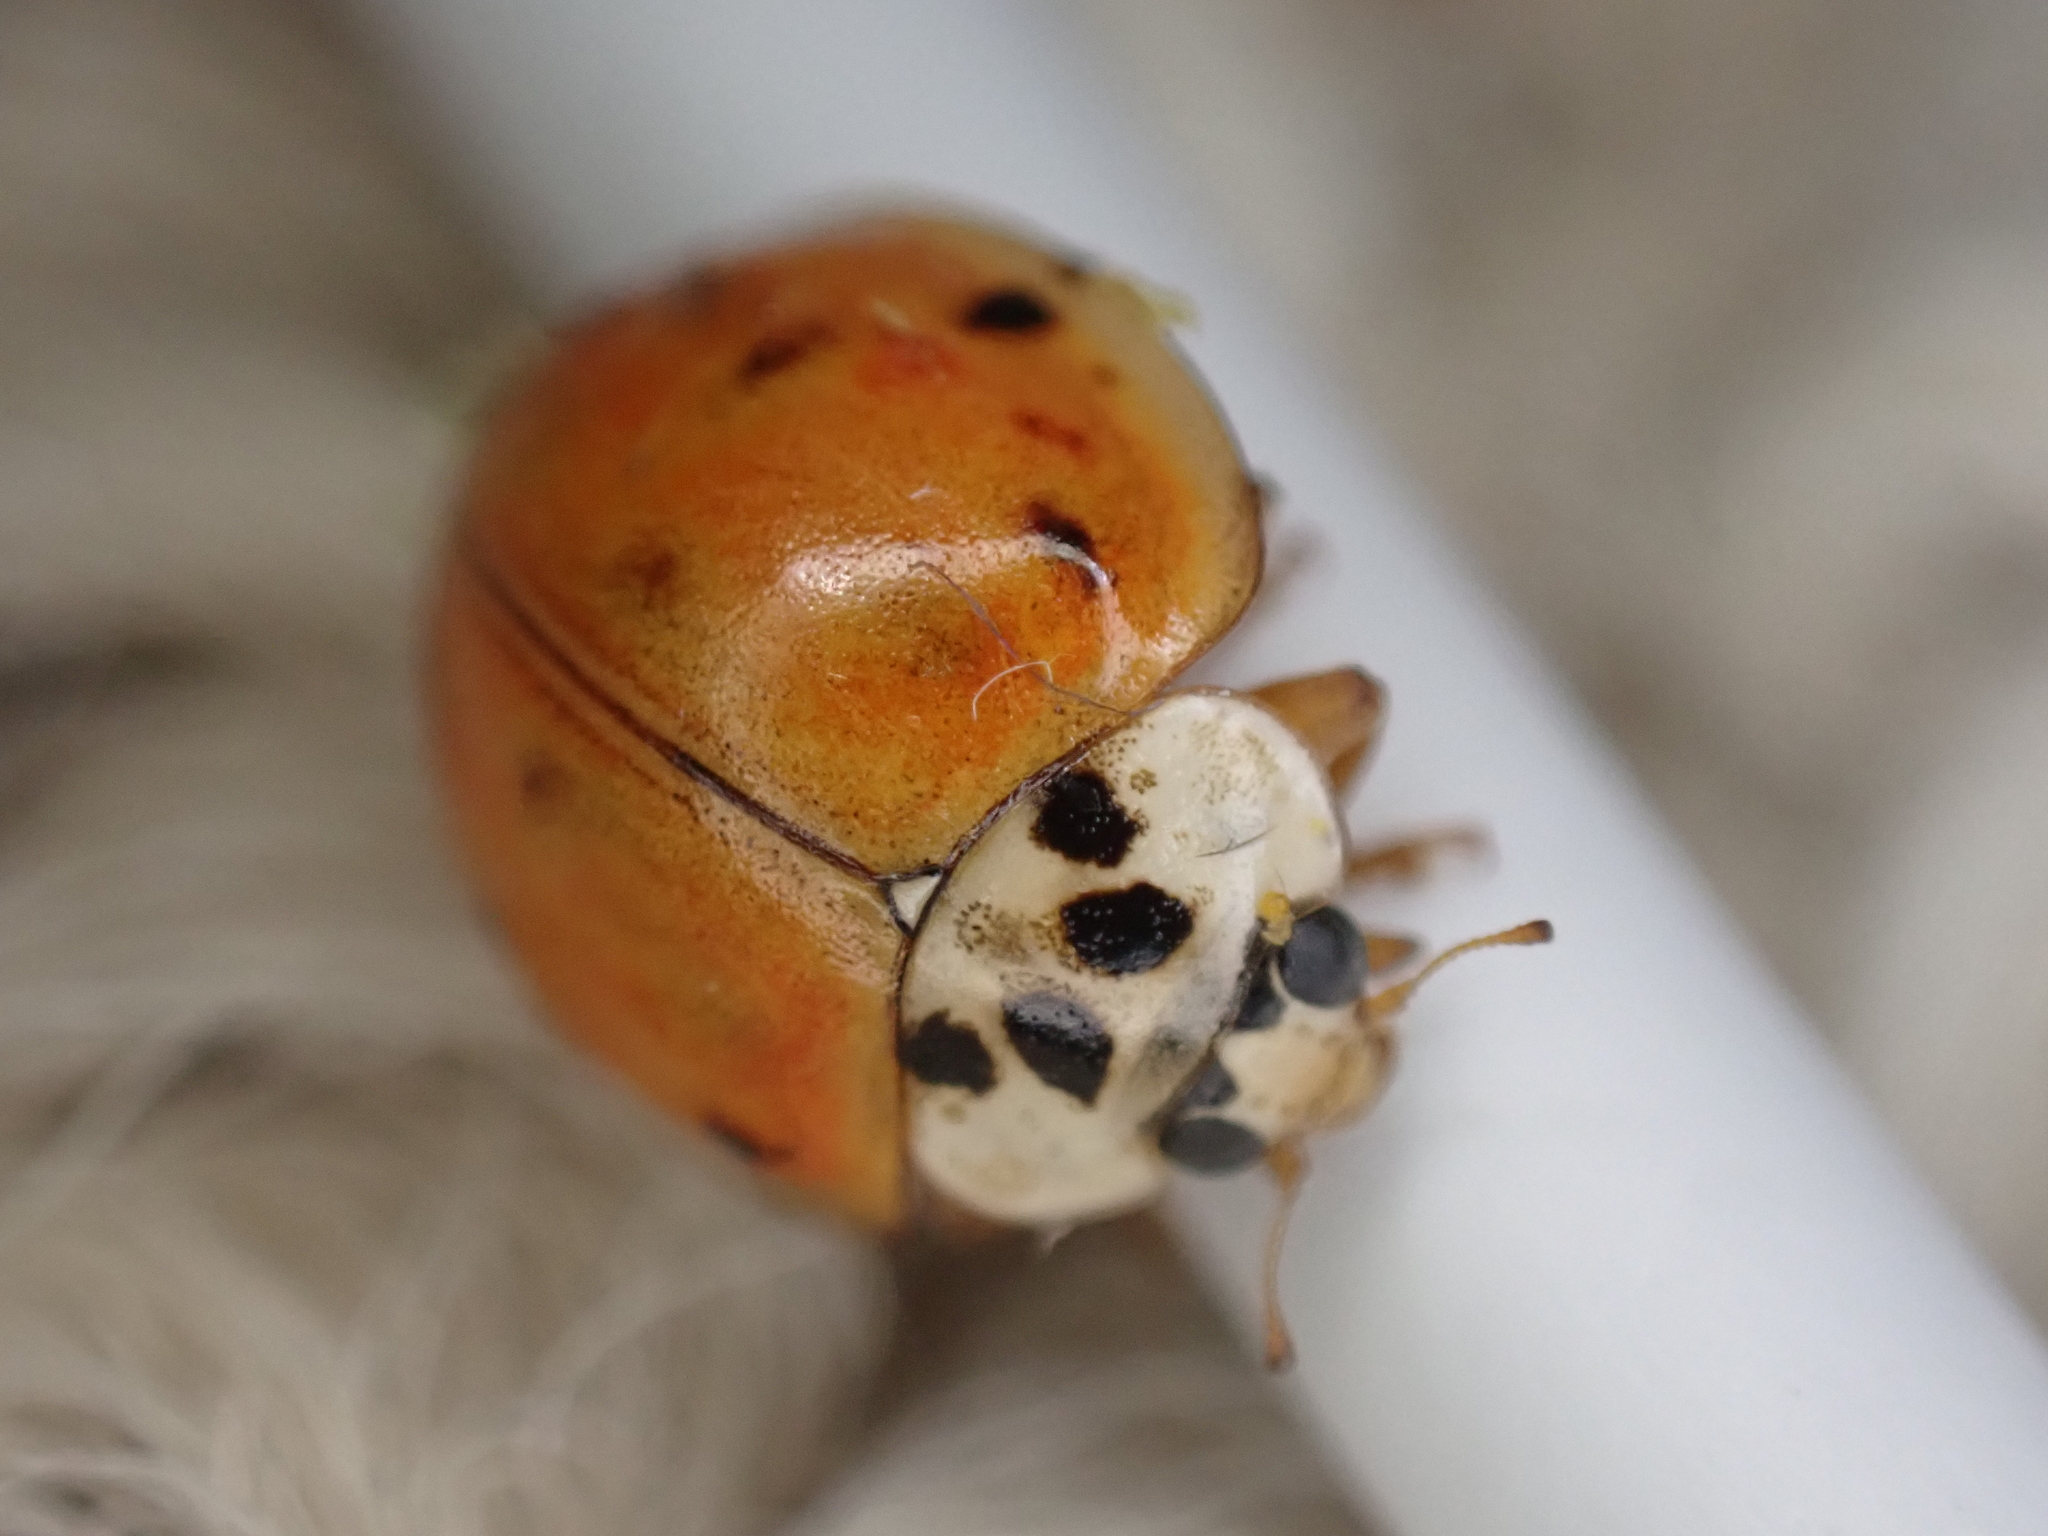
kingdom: Animalia
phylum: Arthropoda
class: Insecta
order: Coleoptera
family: Coccinellidae
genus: Harmonia
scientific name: Harmonia axyridis
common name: Harlequin ladybird
